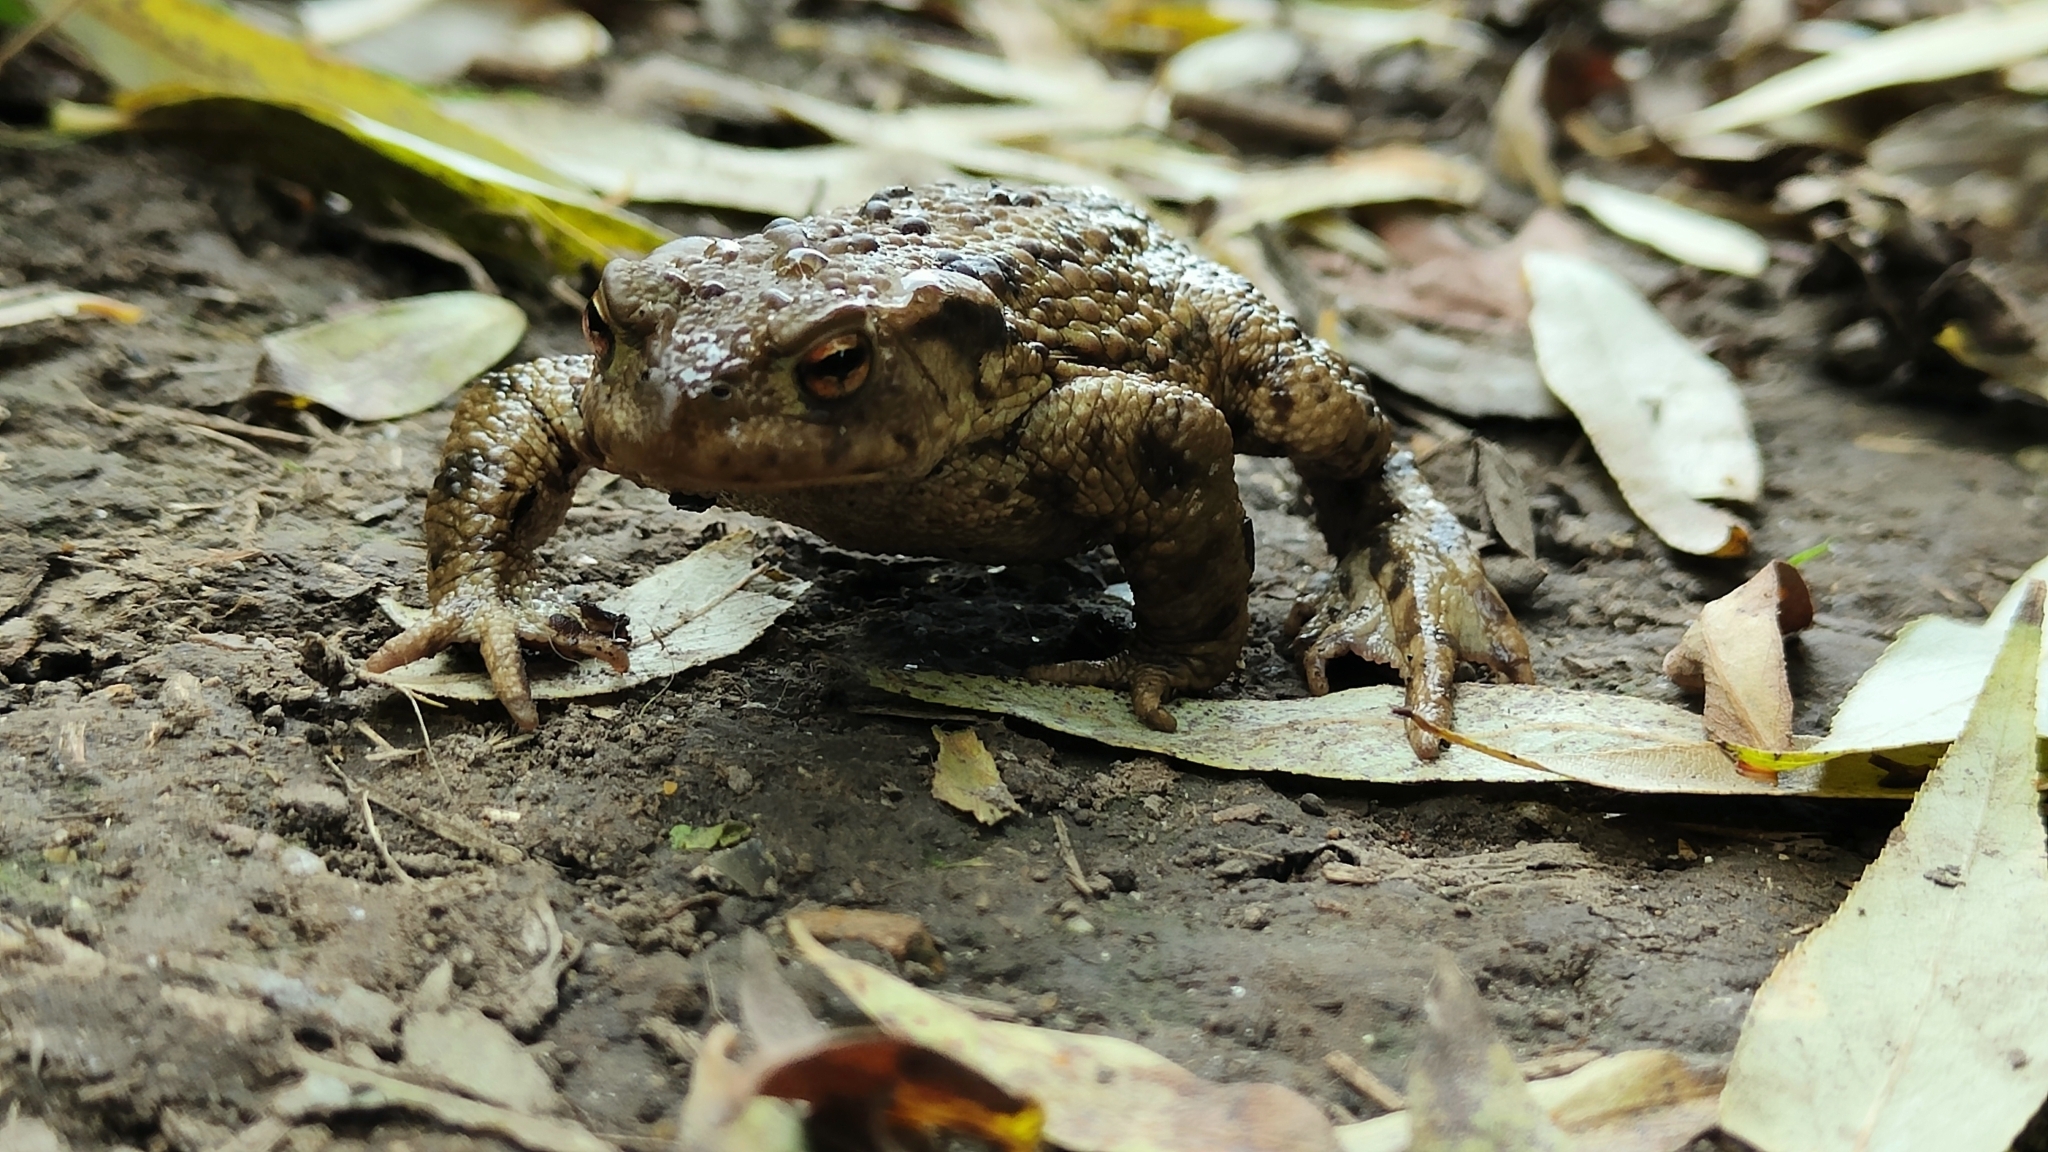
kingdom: Animalia
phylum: Chordata
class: Amphibia
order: Anura
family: Bufonidae
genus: Bufo
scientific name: Bufo bufo
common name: Common toad
